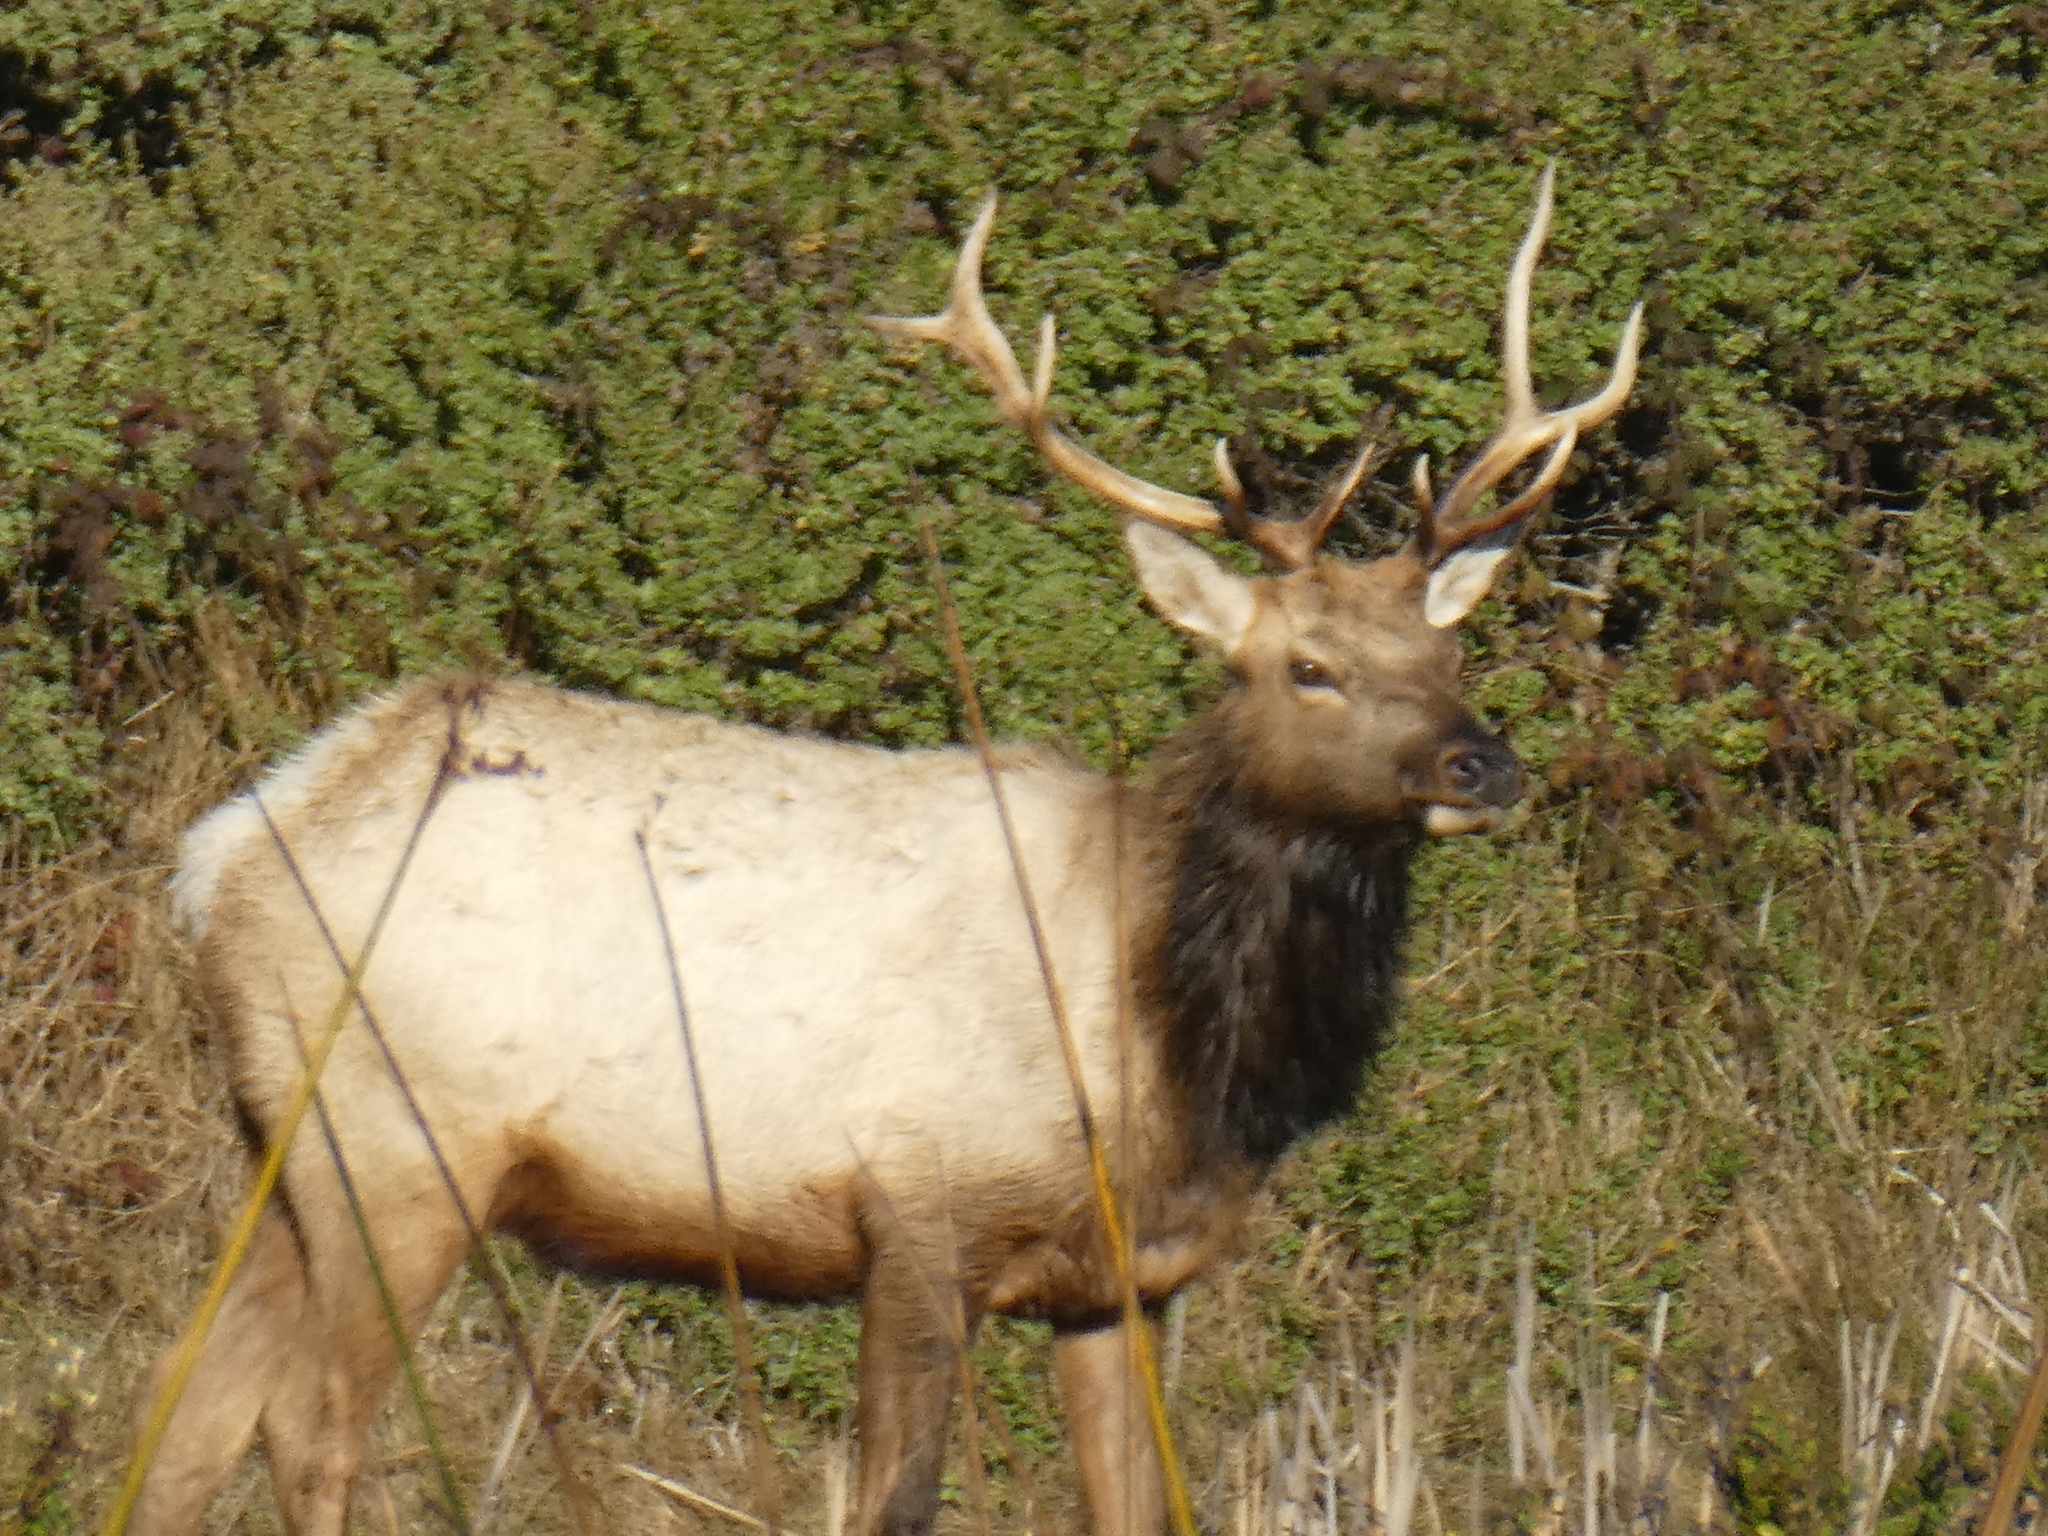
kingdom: Animalia
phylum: Chordata
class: Mammalia
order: Artiodactyla
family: Cervidae
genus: Cervus
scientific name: Cervus elaphus
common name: Red deer
